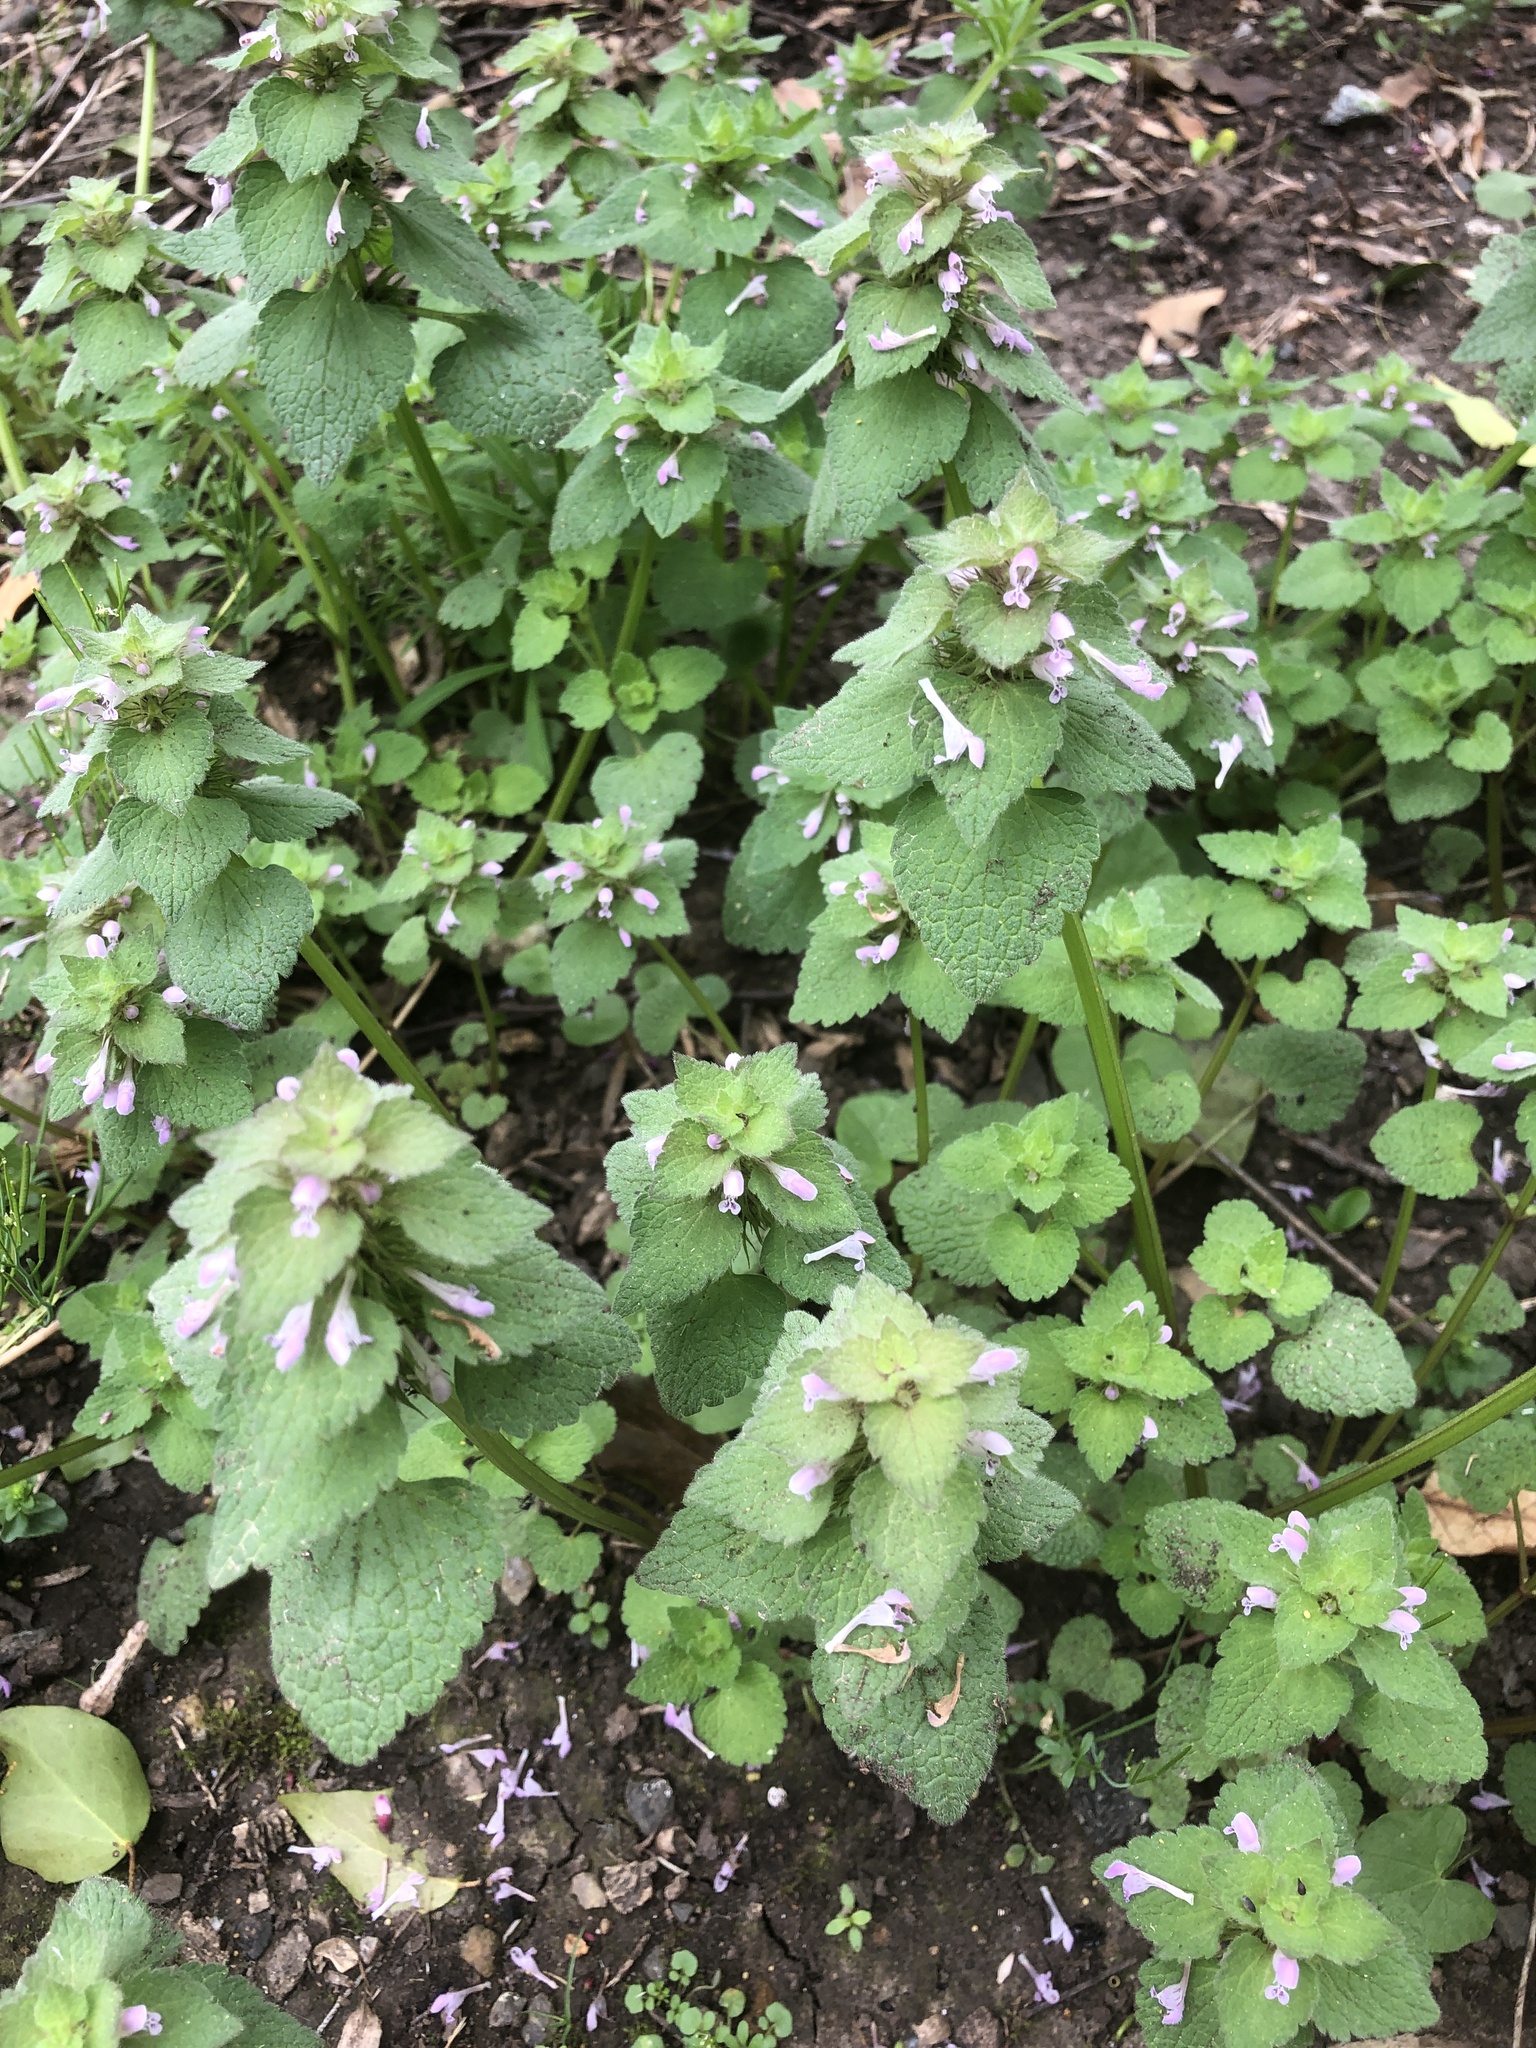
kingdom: Plantae
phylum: Tracheophyta
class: Magnoliopsida
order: Lamiales
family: Lamiaceae
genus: Lamium
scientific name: Lamium purpureum
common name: Red dead-nettle
